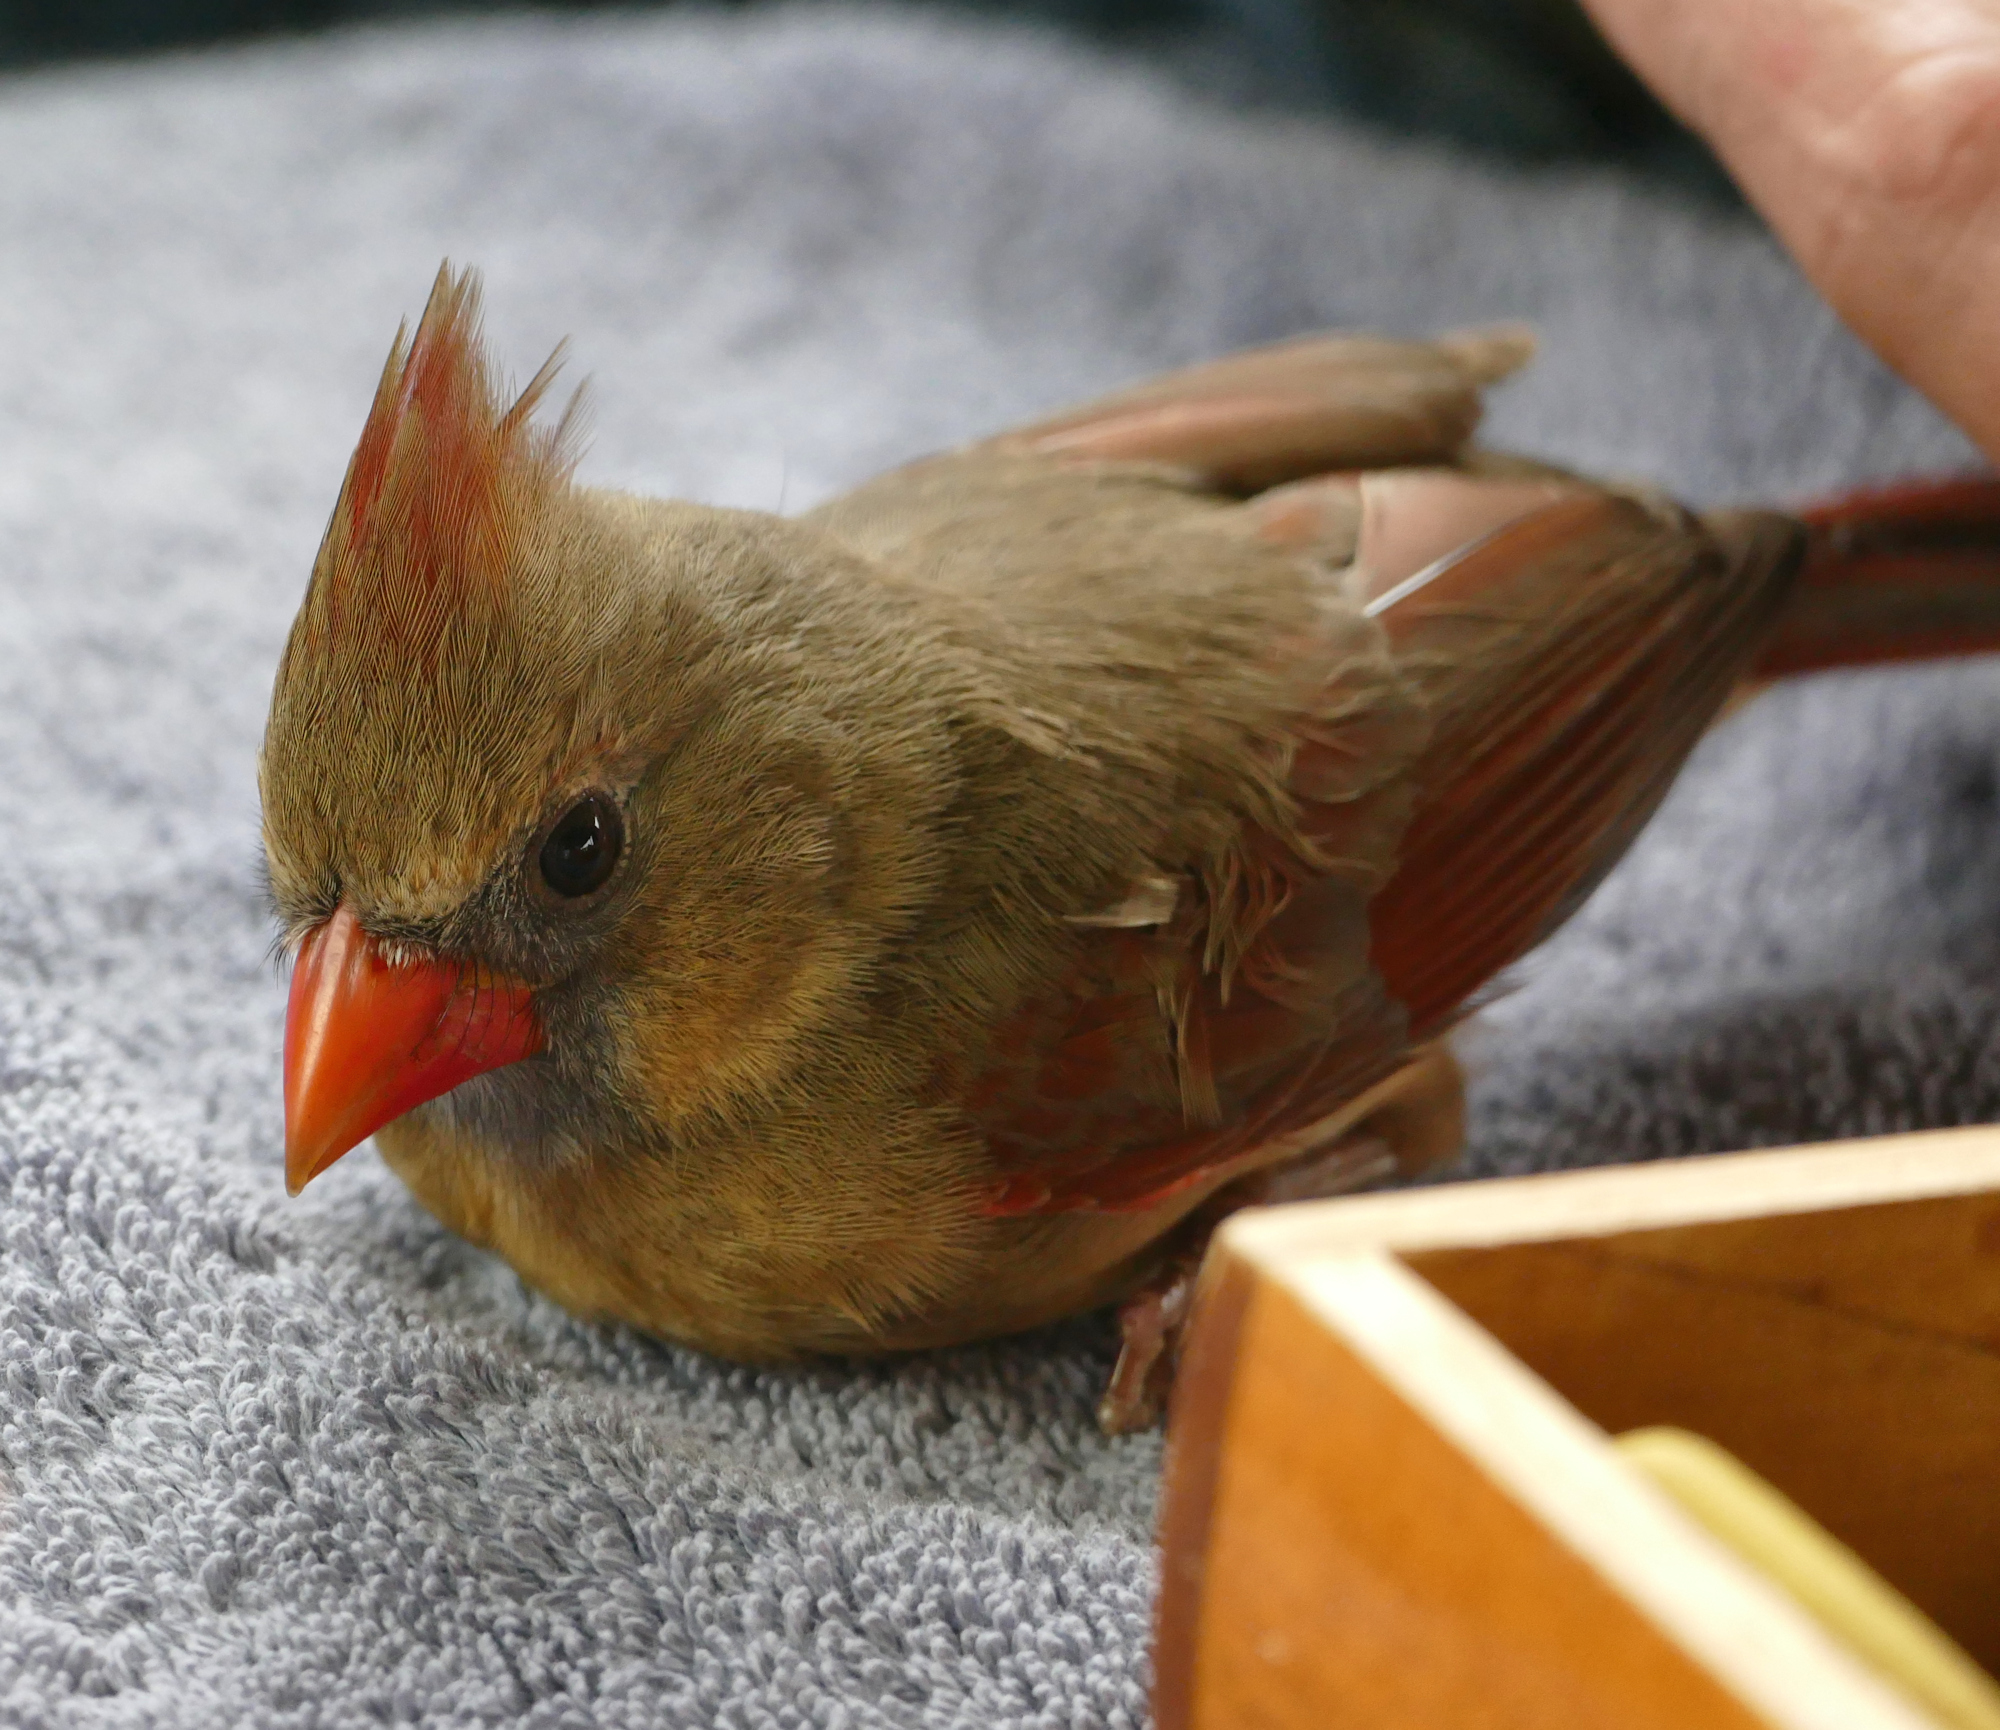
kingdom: Animalia
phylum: Chordata
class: Aves
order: Passeriformes
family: Cardinalidae
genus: Cardinalis
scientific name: Cardinalis cardinalis
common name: Northern cardinal
